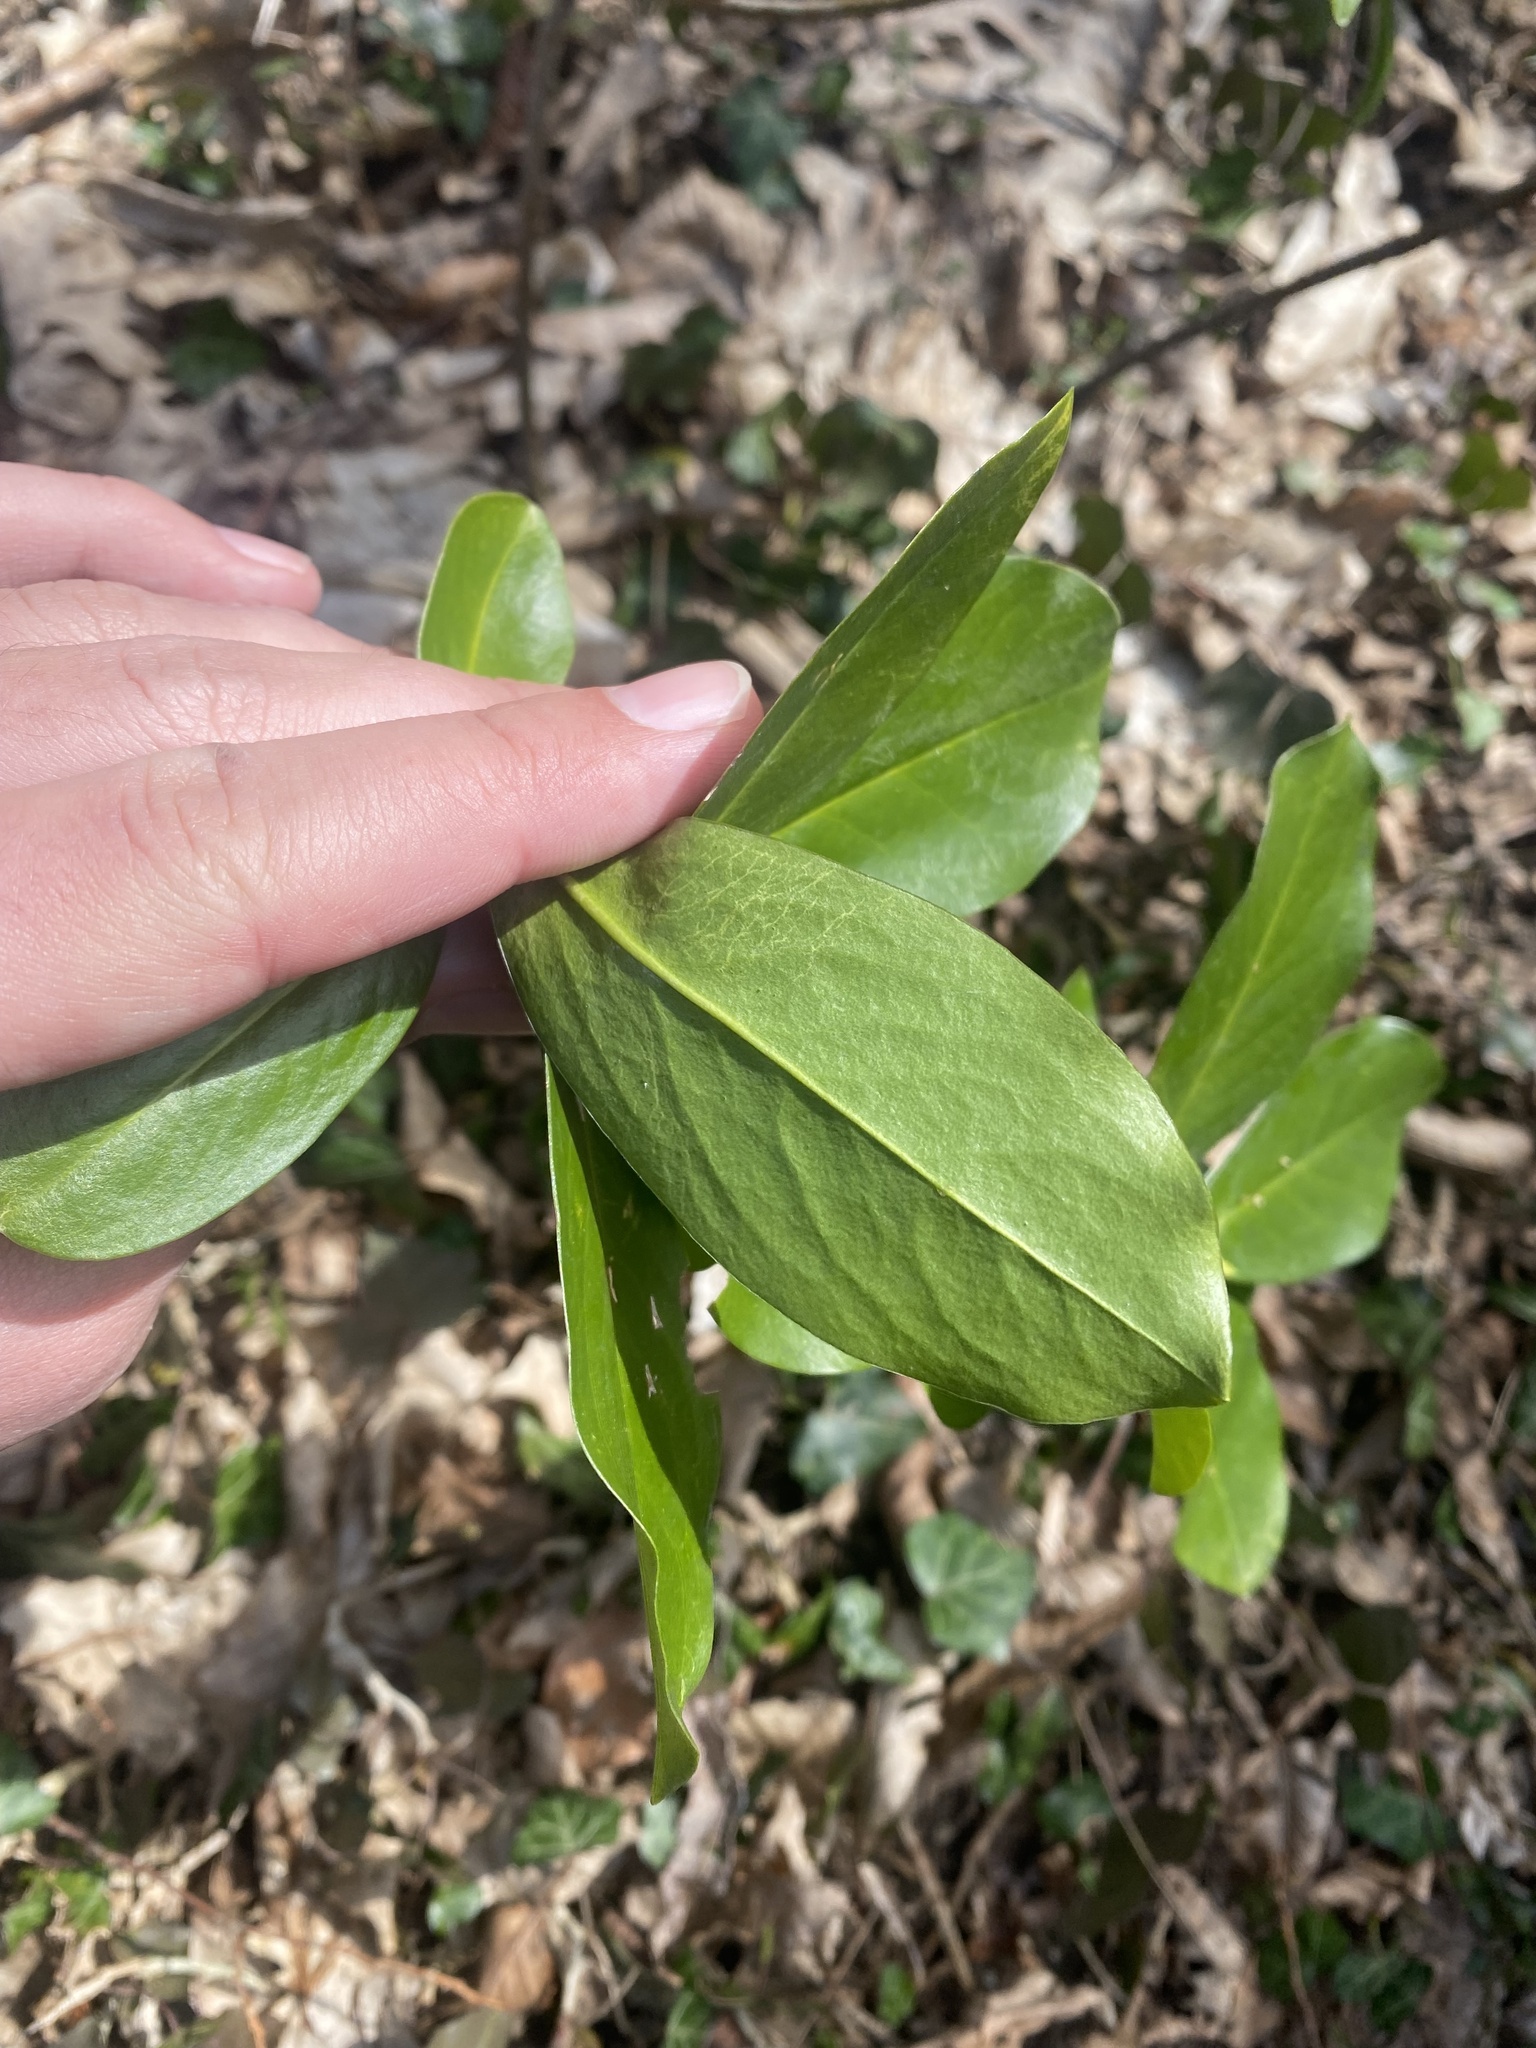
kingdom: Plantae
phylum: Tracheophyta
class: Magnoliopsida
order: Ericales
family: Ericaceae
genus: Rhododendron
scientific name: Rhododendron ponticum
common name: Rhododendron
